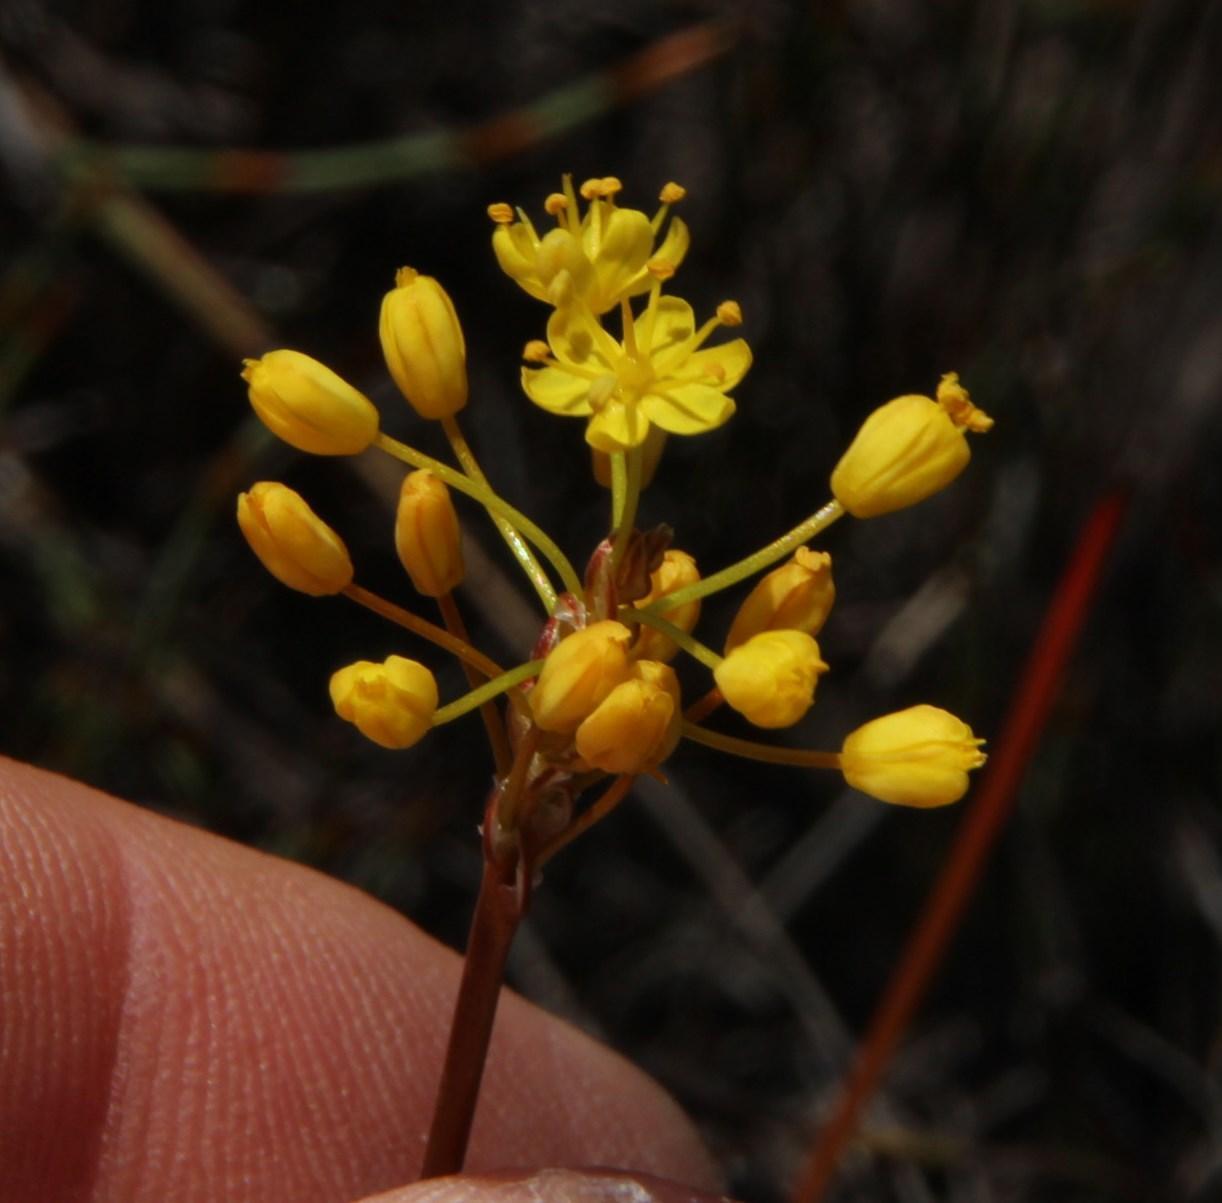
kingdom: Plantae
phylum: Tracheophyta
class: Liliopsida
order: Asparagales
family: Asphodelaceae
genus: Bulbinella
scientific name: Bulbinella triquetra
